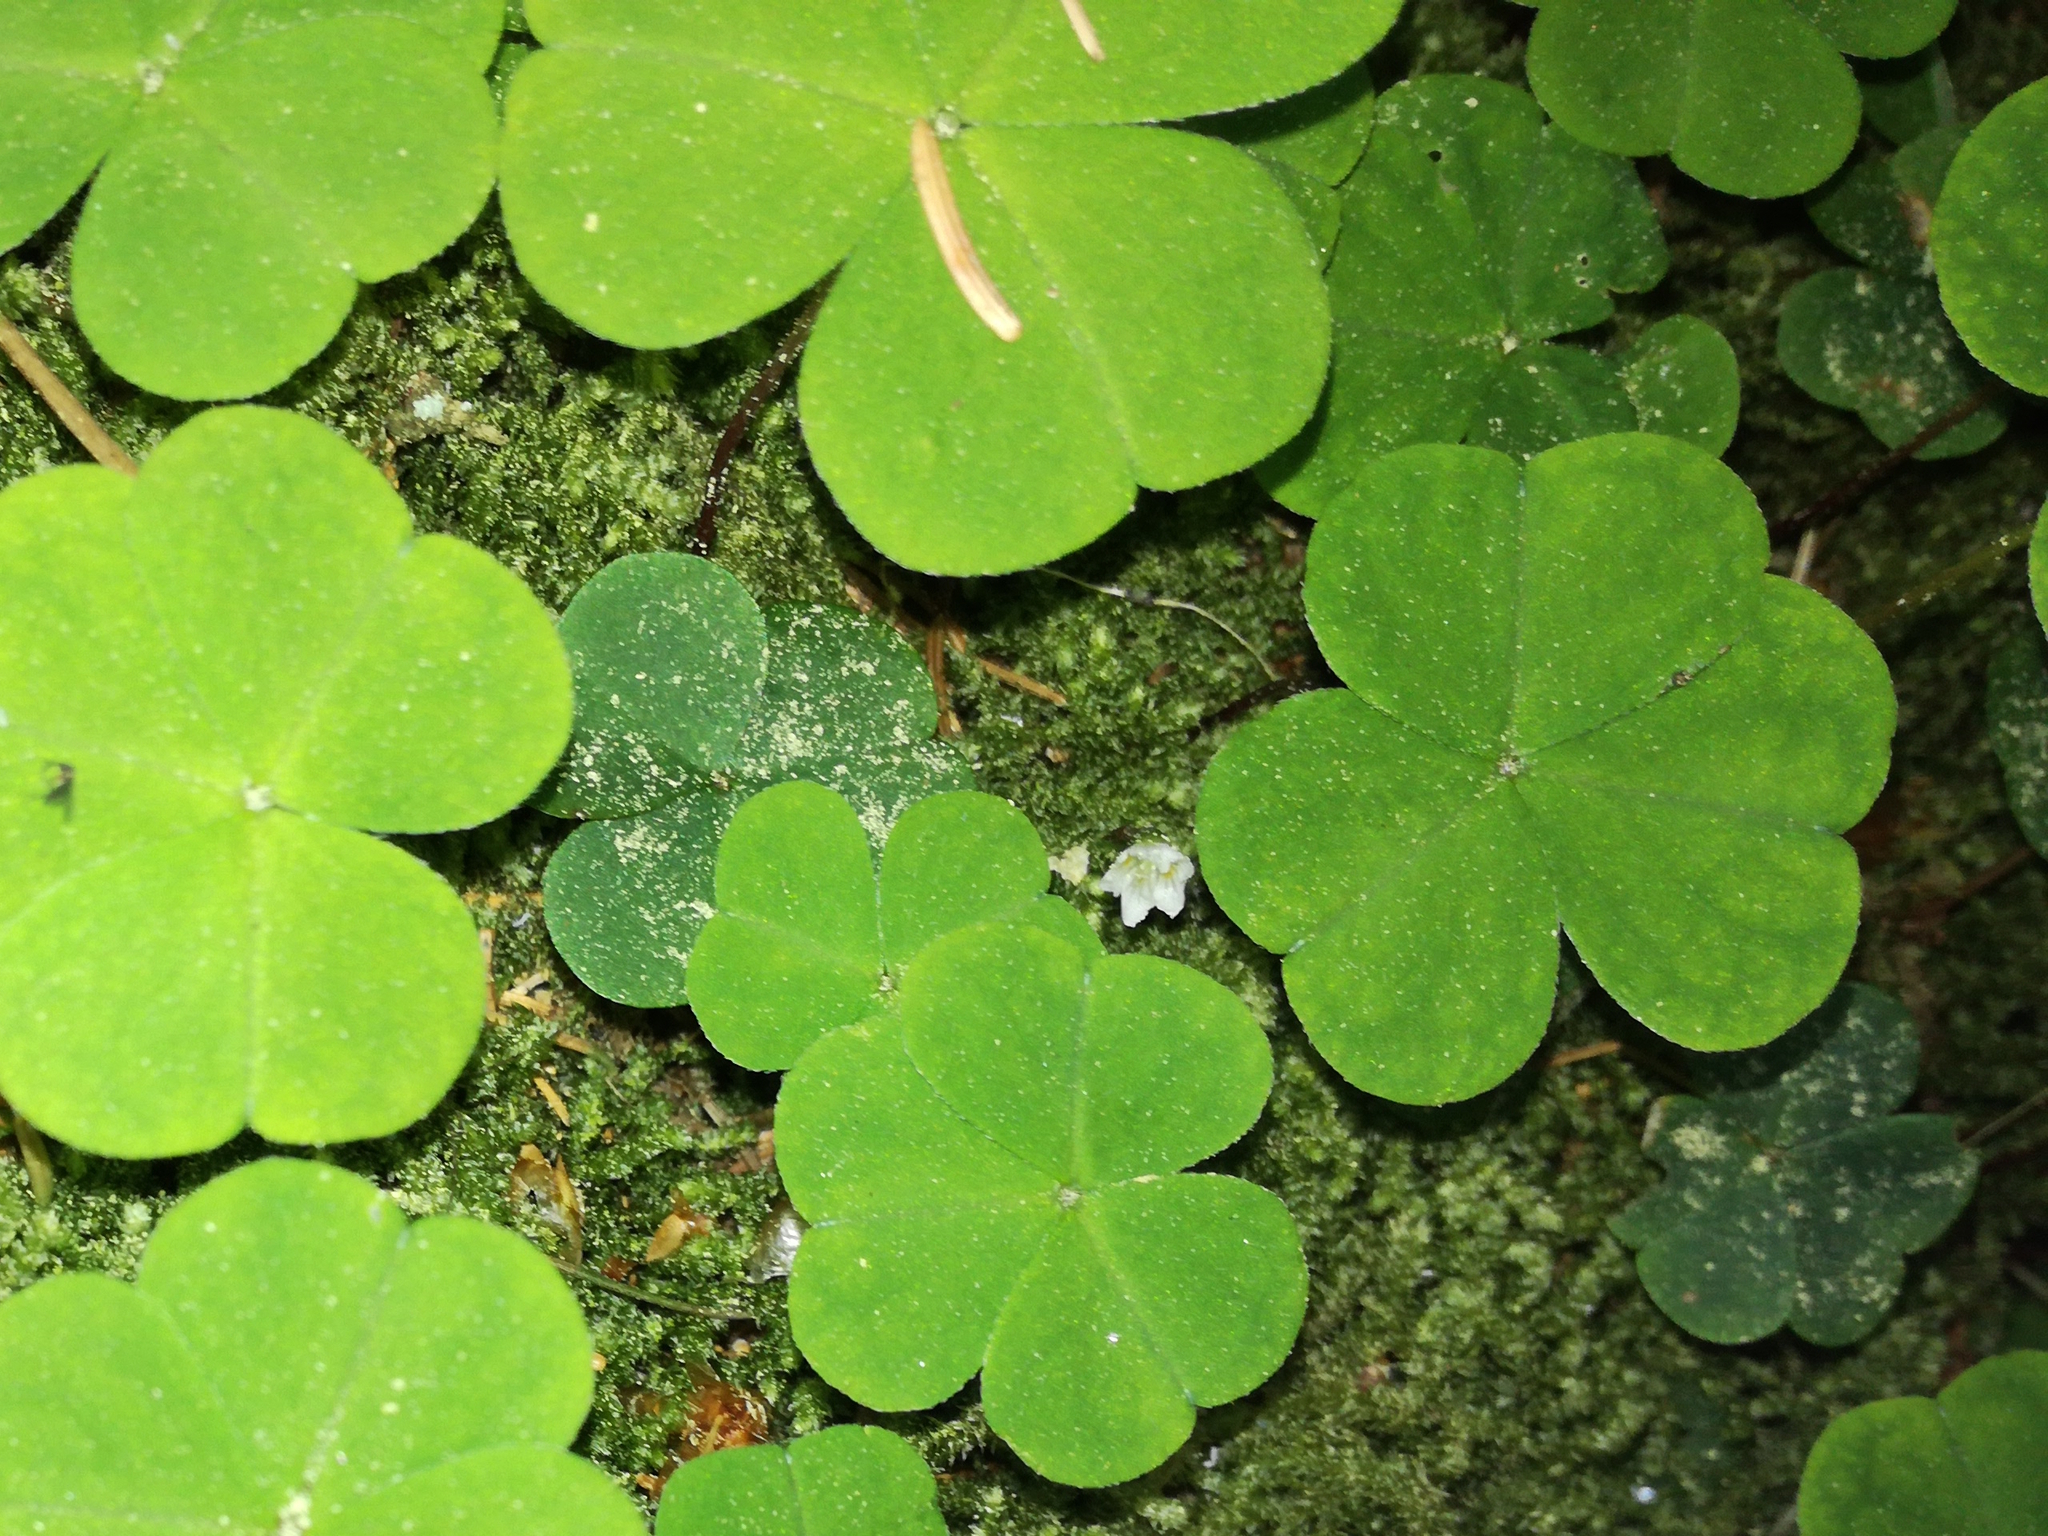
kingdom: Plantae
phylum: Tracheophyta
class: Magnoliopsida
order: Oxalidales
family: Oxalidaceae
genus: Oxalis
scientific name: Oxalis acetosella
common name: Wood-sorrel
